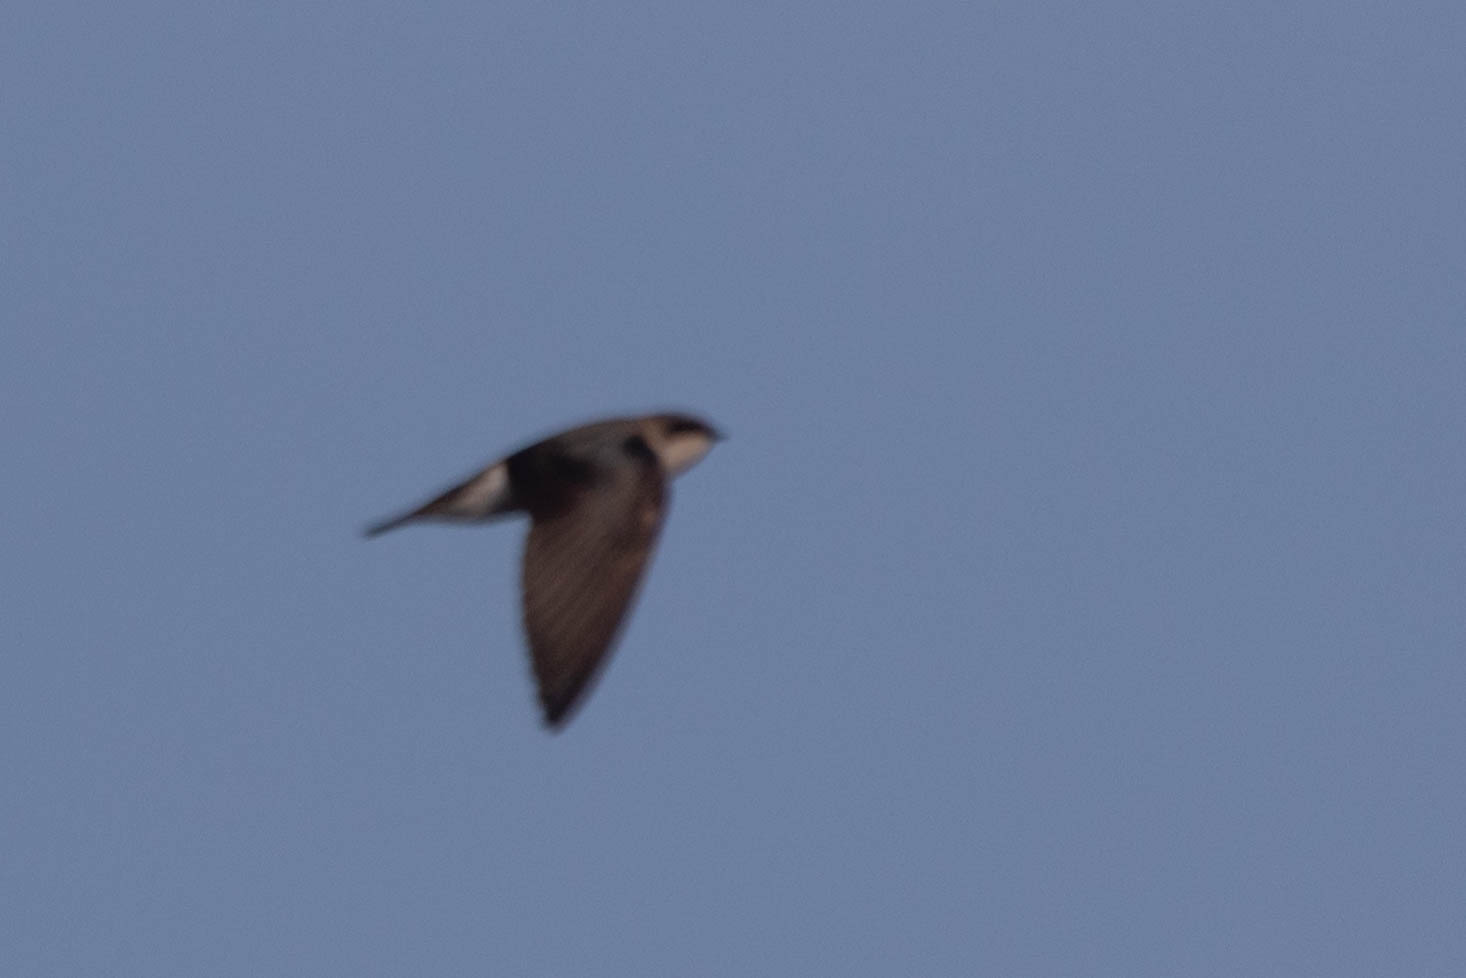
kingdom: Animalia
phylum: Chordata
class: Aves
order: Passeriformes
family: Hirundinidae
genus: Tachycineta
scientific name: Tachycineta bicolor
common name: Tree swallow
